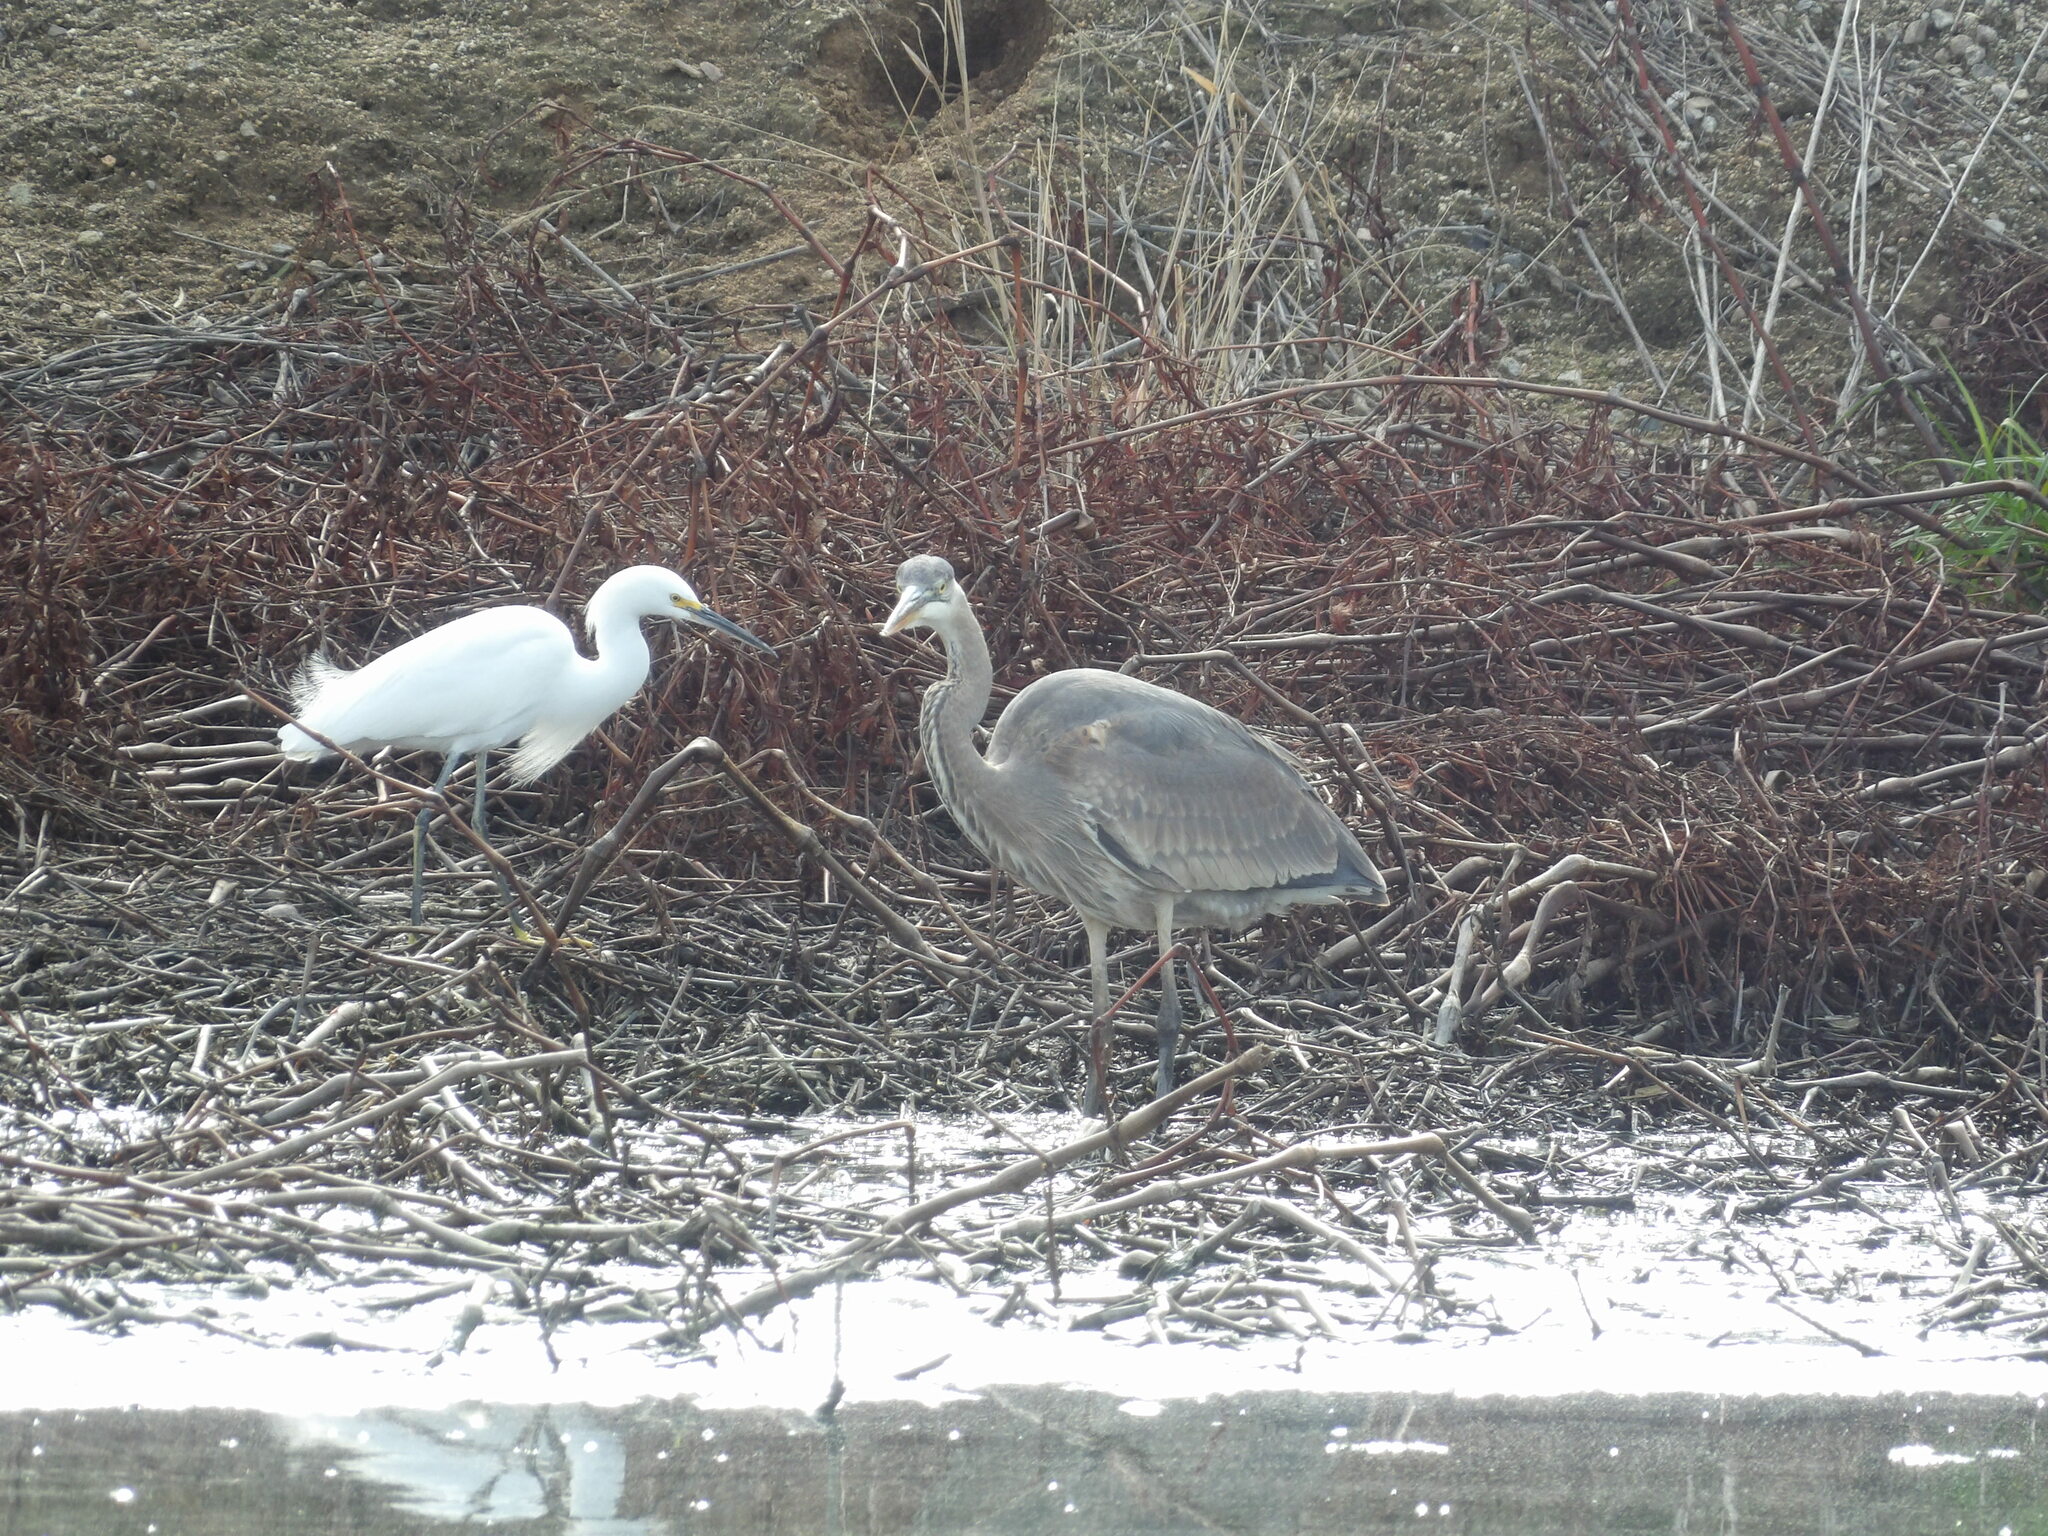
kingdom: Animalia
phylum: Chordata
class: Aves
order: Pelecaniformes
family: Ardeidae
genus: Ardea
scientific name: Ardea herodias
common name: Great blue heron
